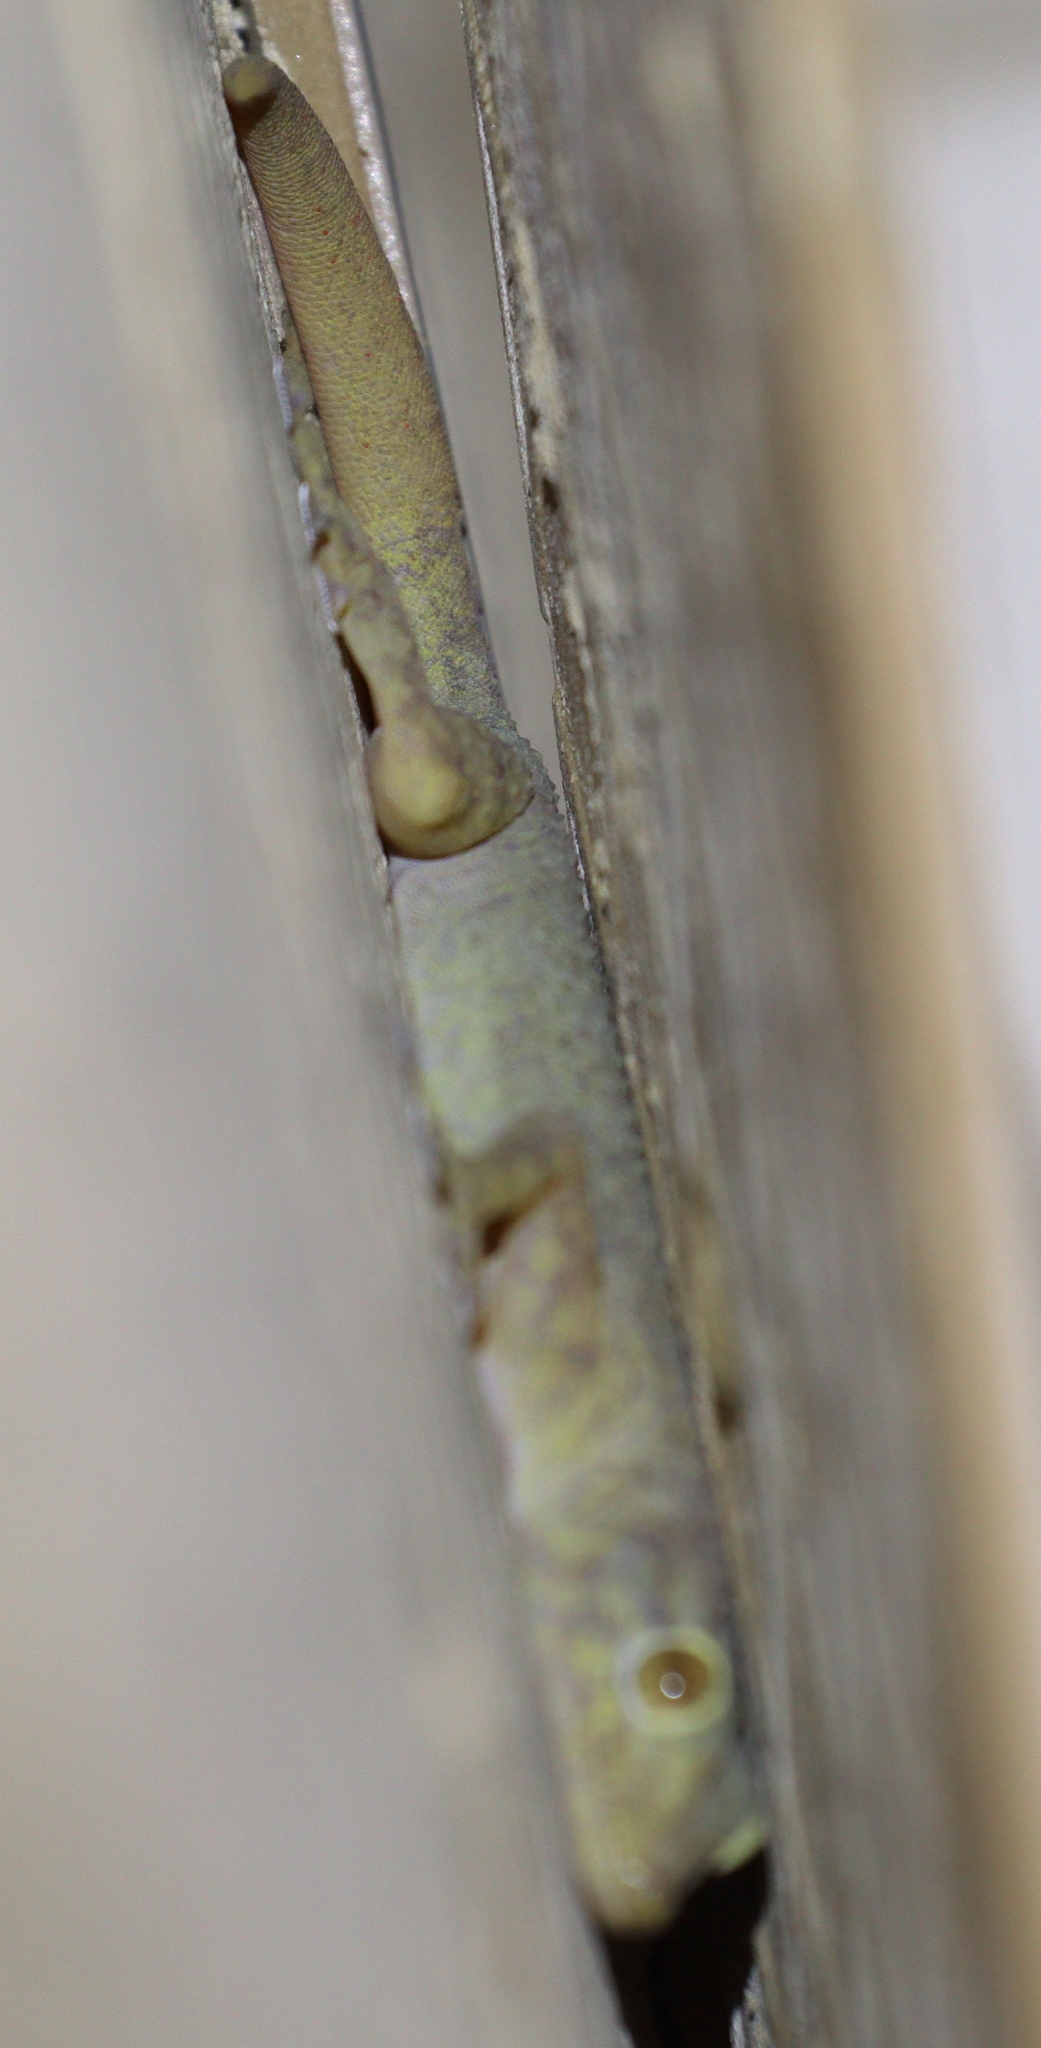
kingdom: Animalia
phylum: Chordata
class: Squamata
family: Gekkonidae
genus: Hemidactylus
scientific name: Hemidactylus flaviviridis
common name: Northern house gecko
